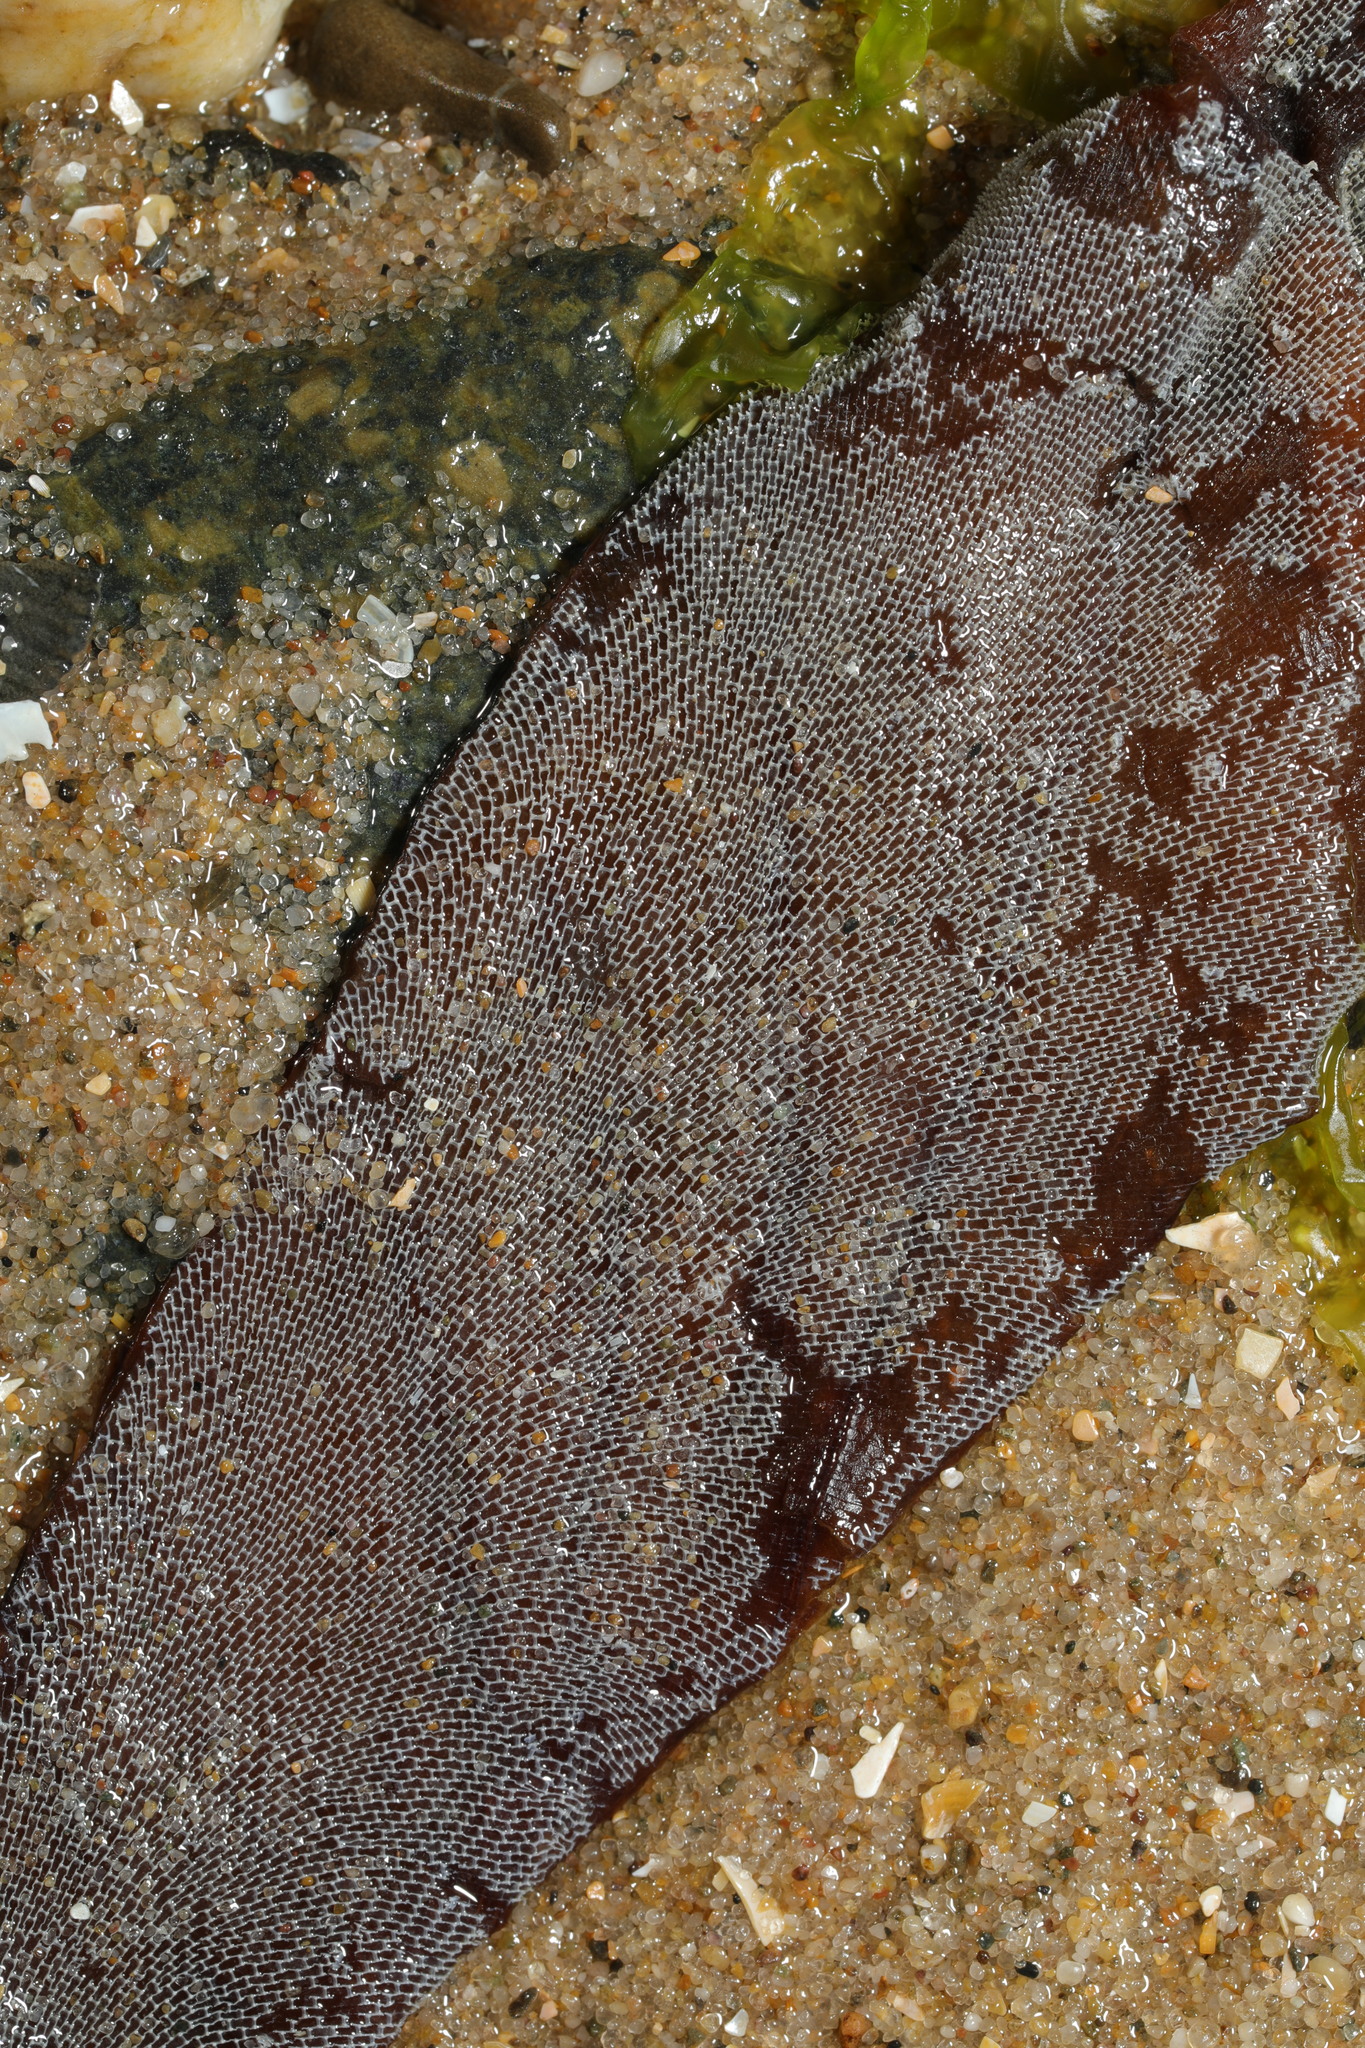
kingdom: Animalia
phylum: Bryozoa
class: Gymnolaemata
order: Cheilostomatida
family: Membraniporidae
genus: Membranipora
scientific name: Membranipora membranacea
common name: Sea mat
